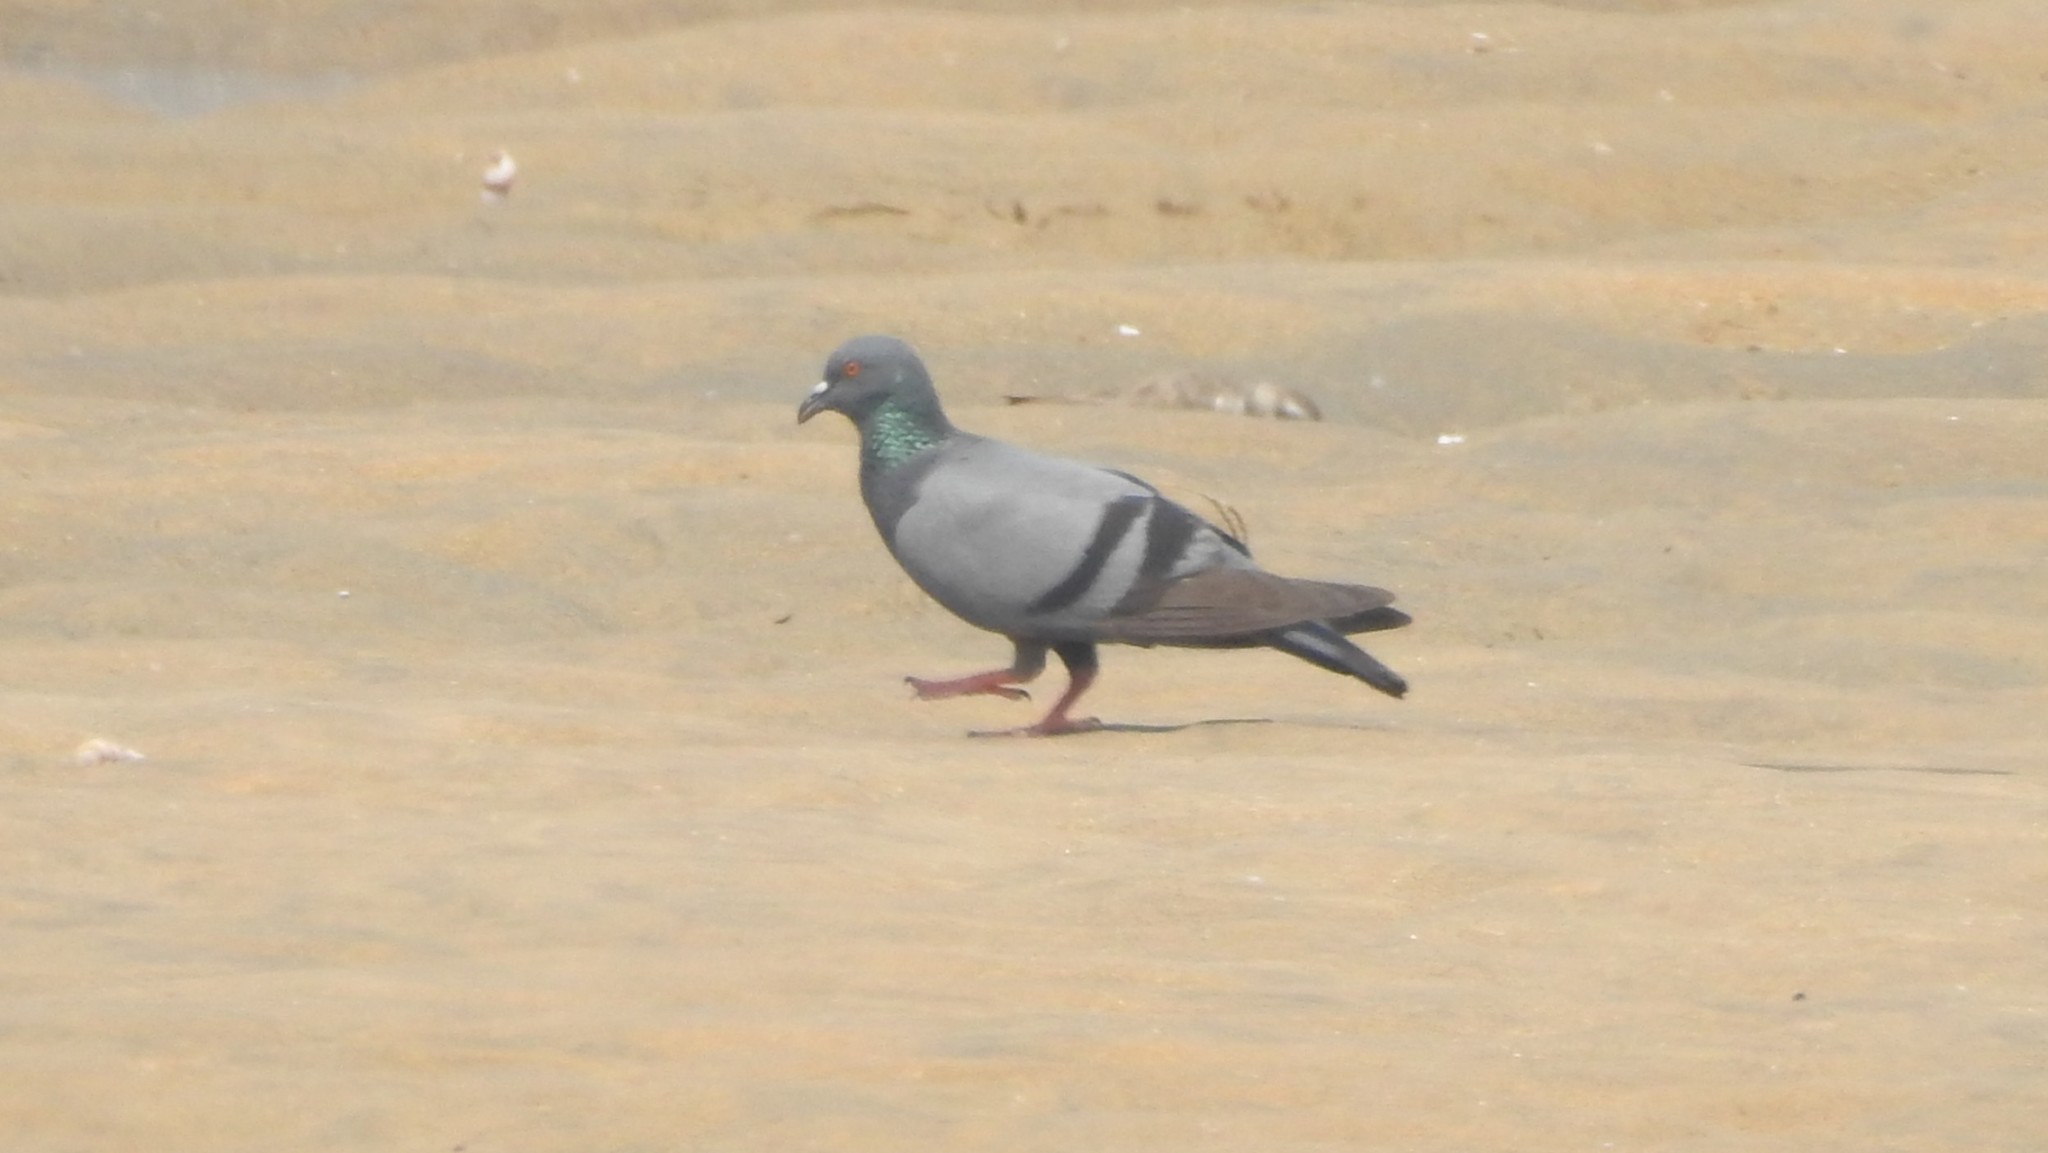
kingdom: Animalia
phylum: Chordata
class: Aves
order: Columbiformes
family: Columbidae
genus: Columba
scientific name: Columba livia
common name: Rock pigeon
